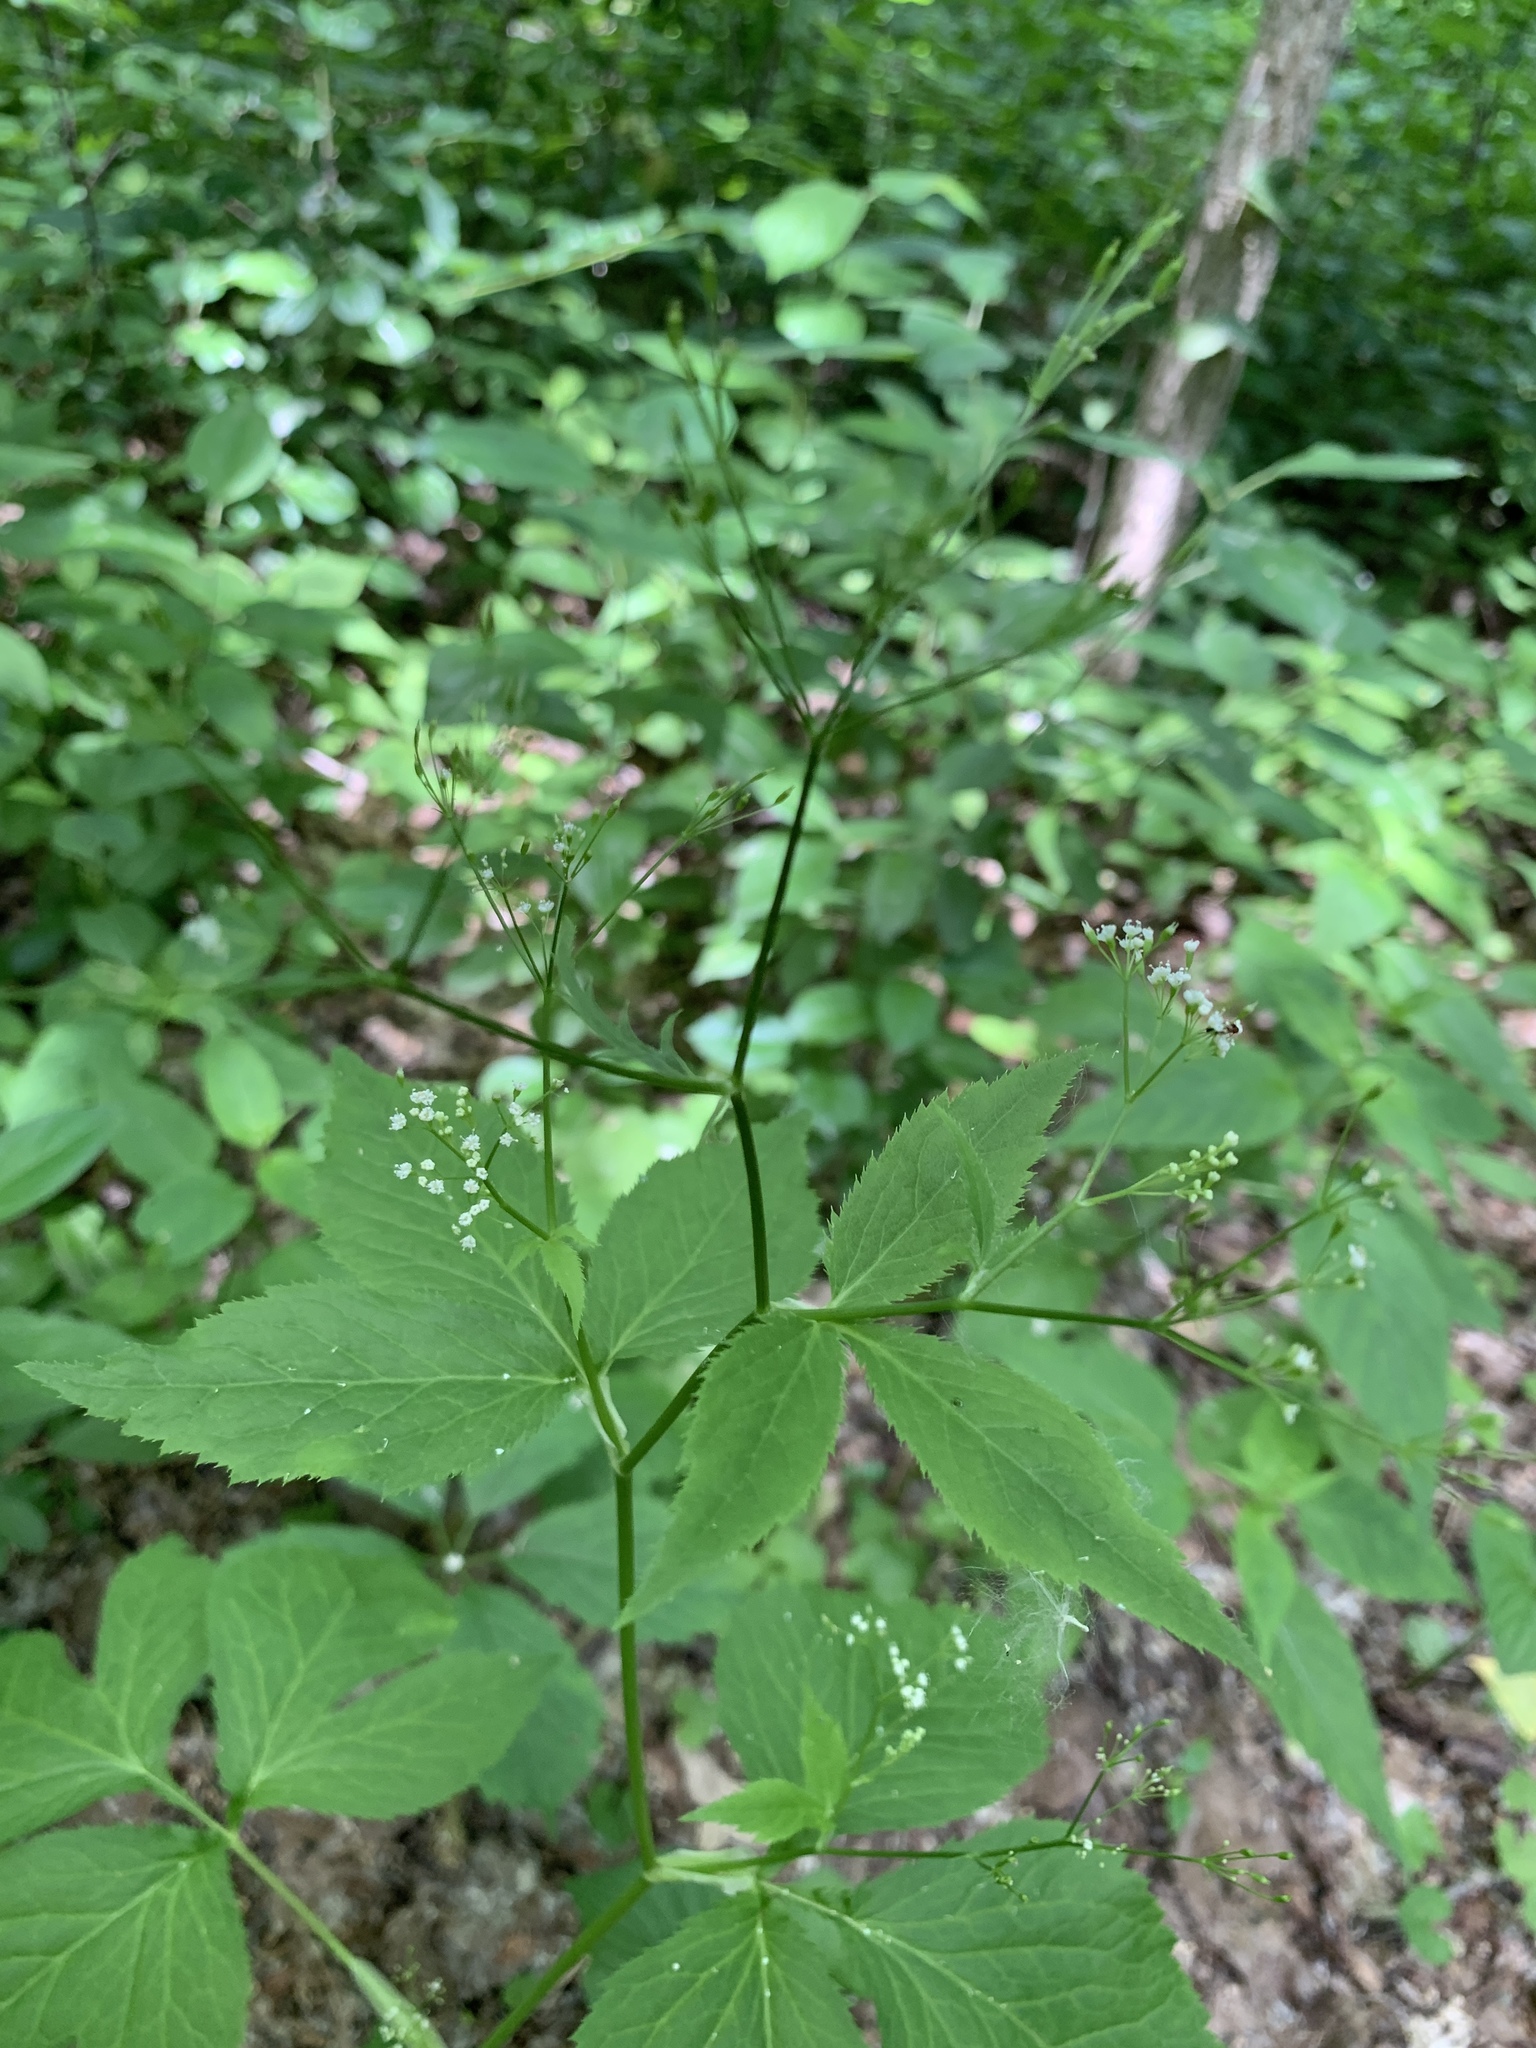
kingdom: Plantae
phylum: Tracheophyta
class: Magnoliopsida
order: Apiales
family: Apiaceae
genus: Cryptotaenia
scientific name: Cryptotaenia canadensis
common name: Honewort
